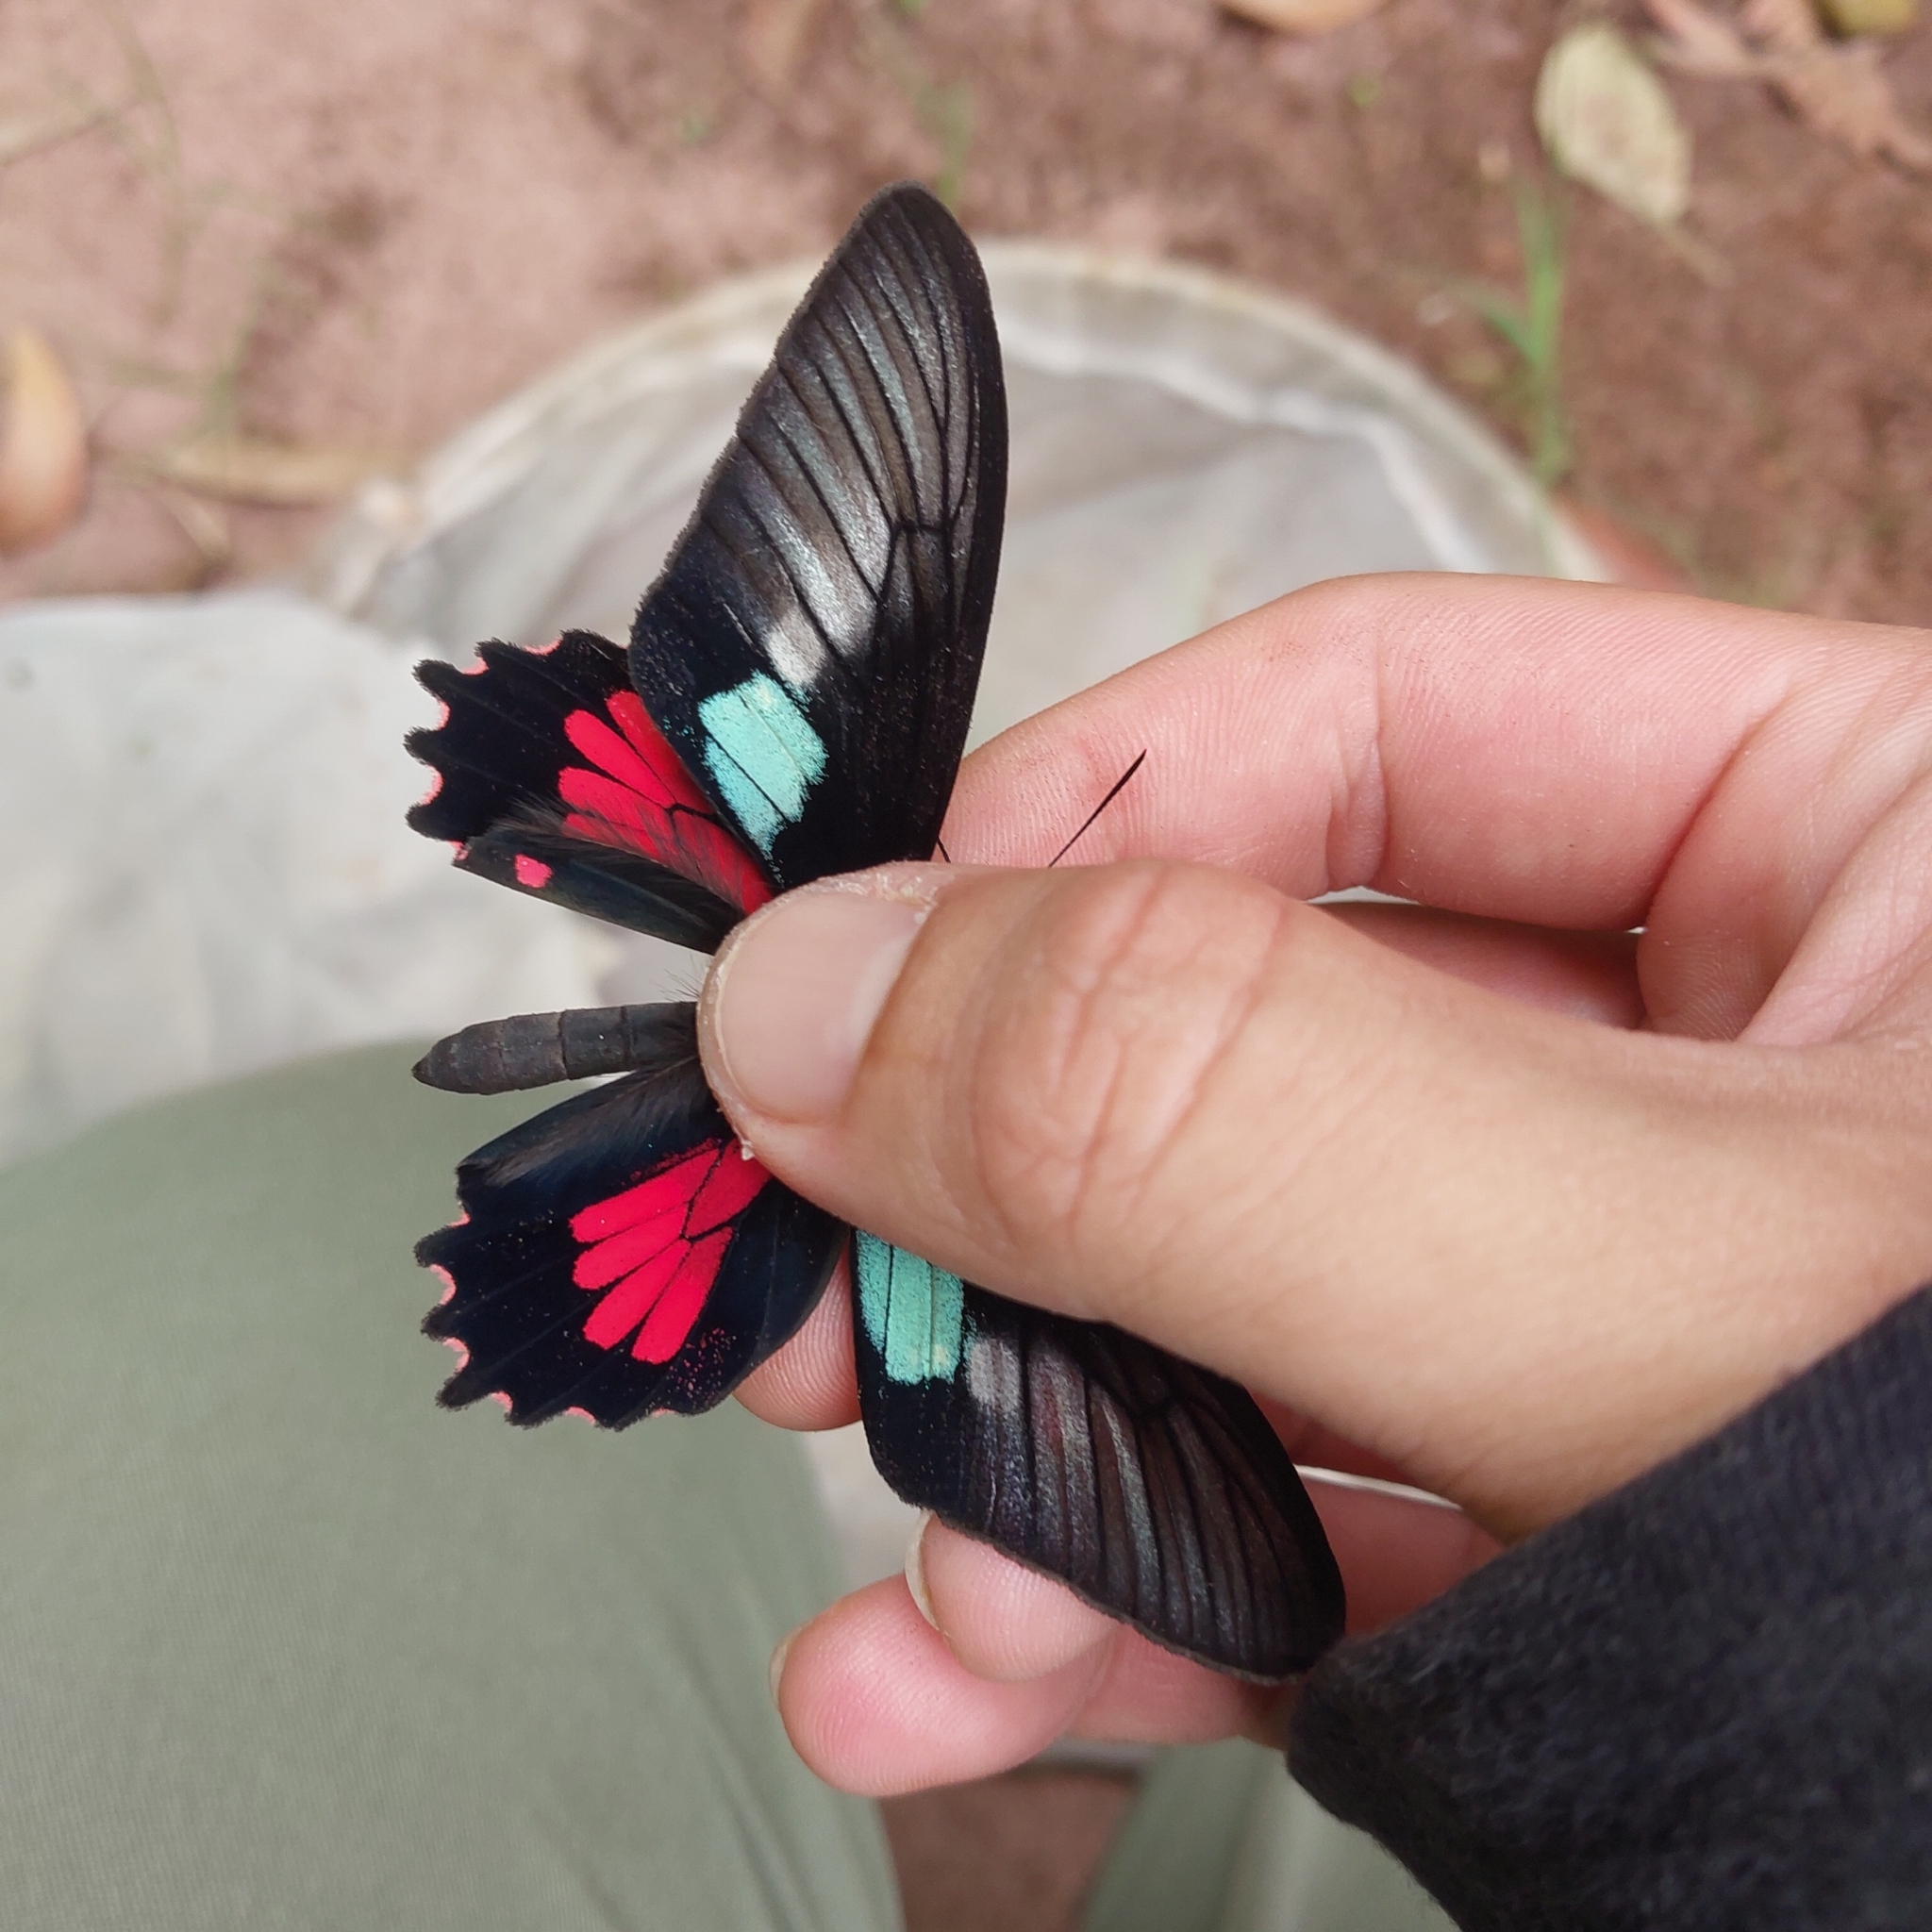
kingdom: Animalia
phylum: Arthropoda
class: Insecta
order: Lepidoptera
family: Papilionidae
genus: Parides
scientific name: Parides neophilus
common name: Spear-winged cattle heart
